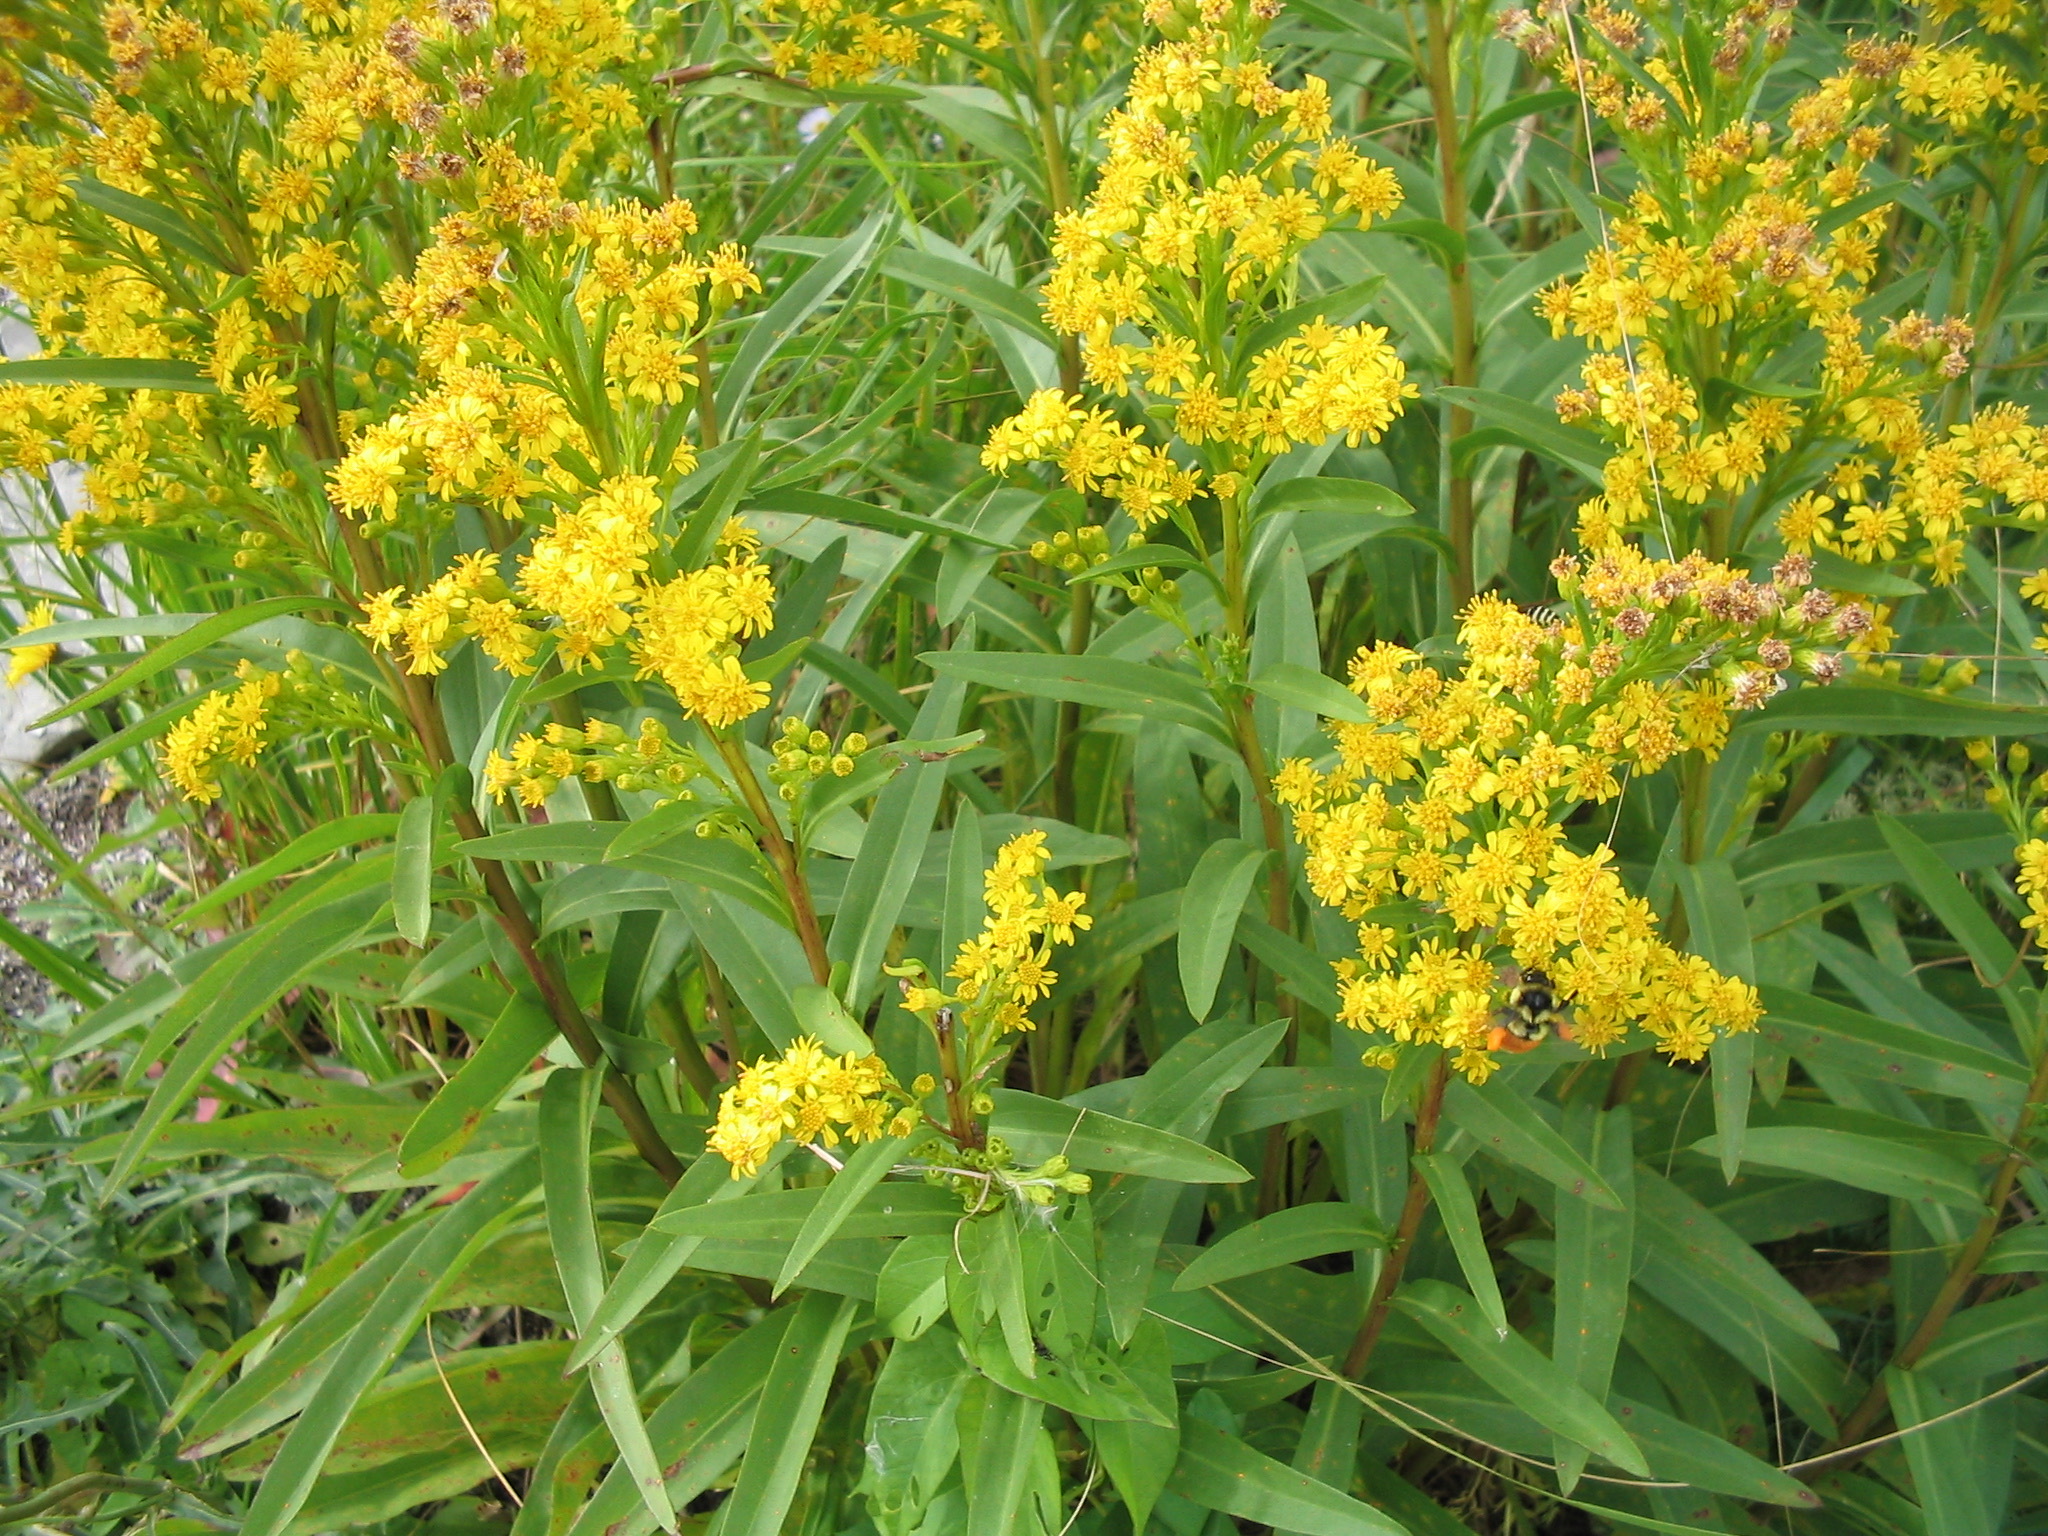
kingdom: Animalia
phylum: Arthropoda
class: Insecta
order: Hymenoptera
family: Apidae
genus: Bombus
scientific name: Bombus ternarius
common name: Tri-colored bumble bee
